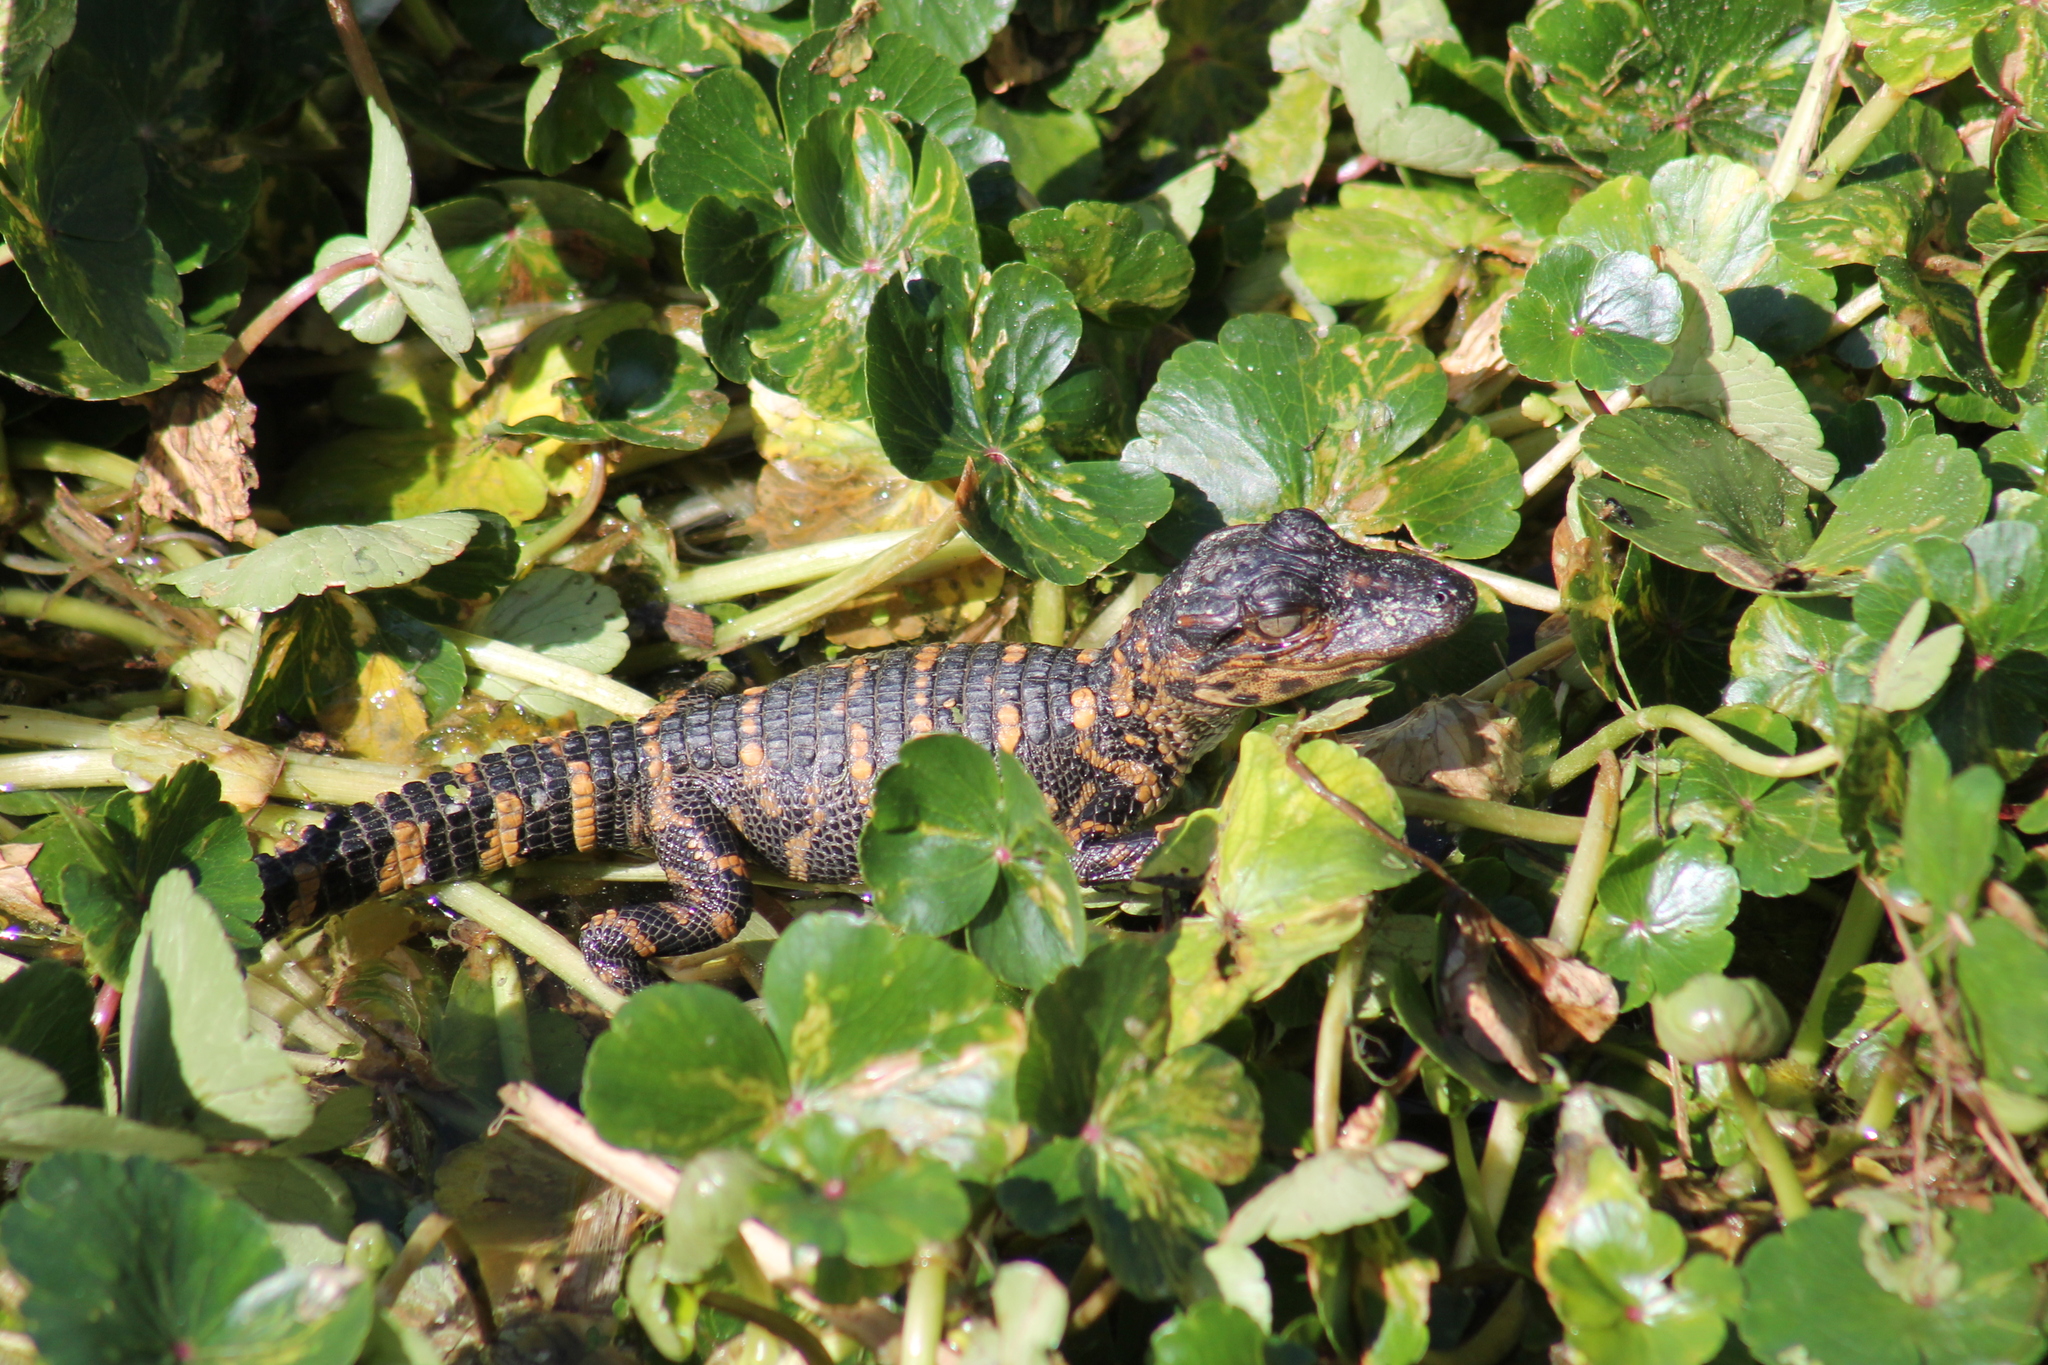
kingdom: Animalia
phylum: Chordata
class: Crocodylia
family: Alligatoridae
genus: Alligator
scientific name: Alligator mississippiensis
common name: American alligator
